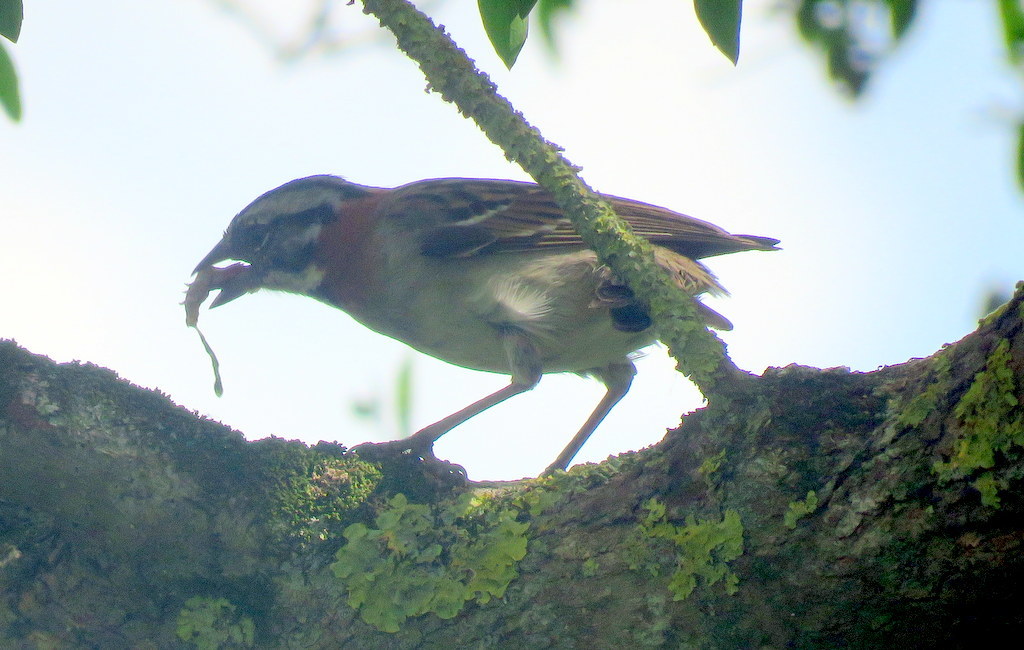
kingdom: Animalia
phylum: Chordata
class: Aves
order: Passeriformes
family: Passerellidae
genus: Zonotrichia
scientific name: Zonotrichia capensis
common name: Rufous-collared sparrow
